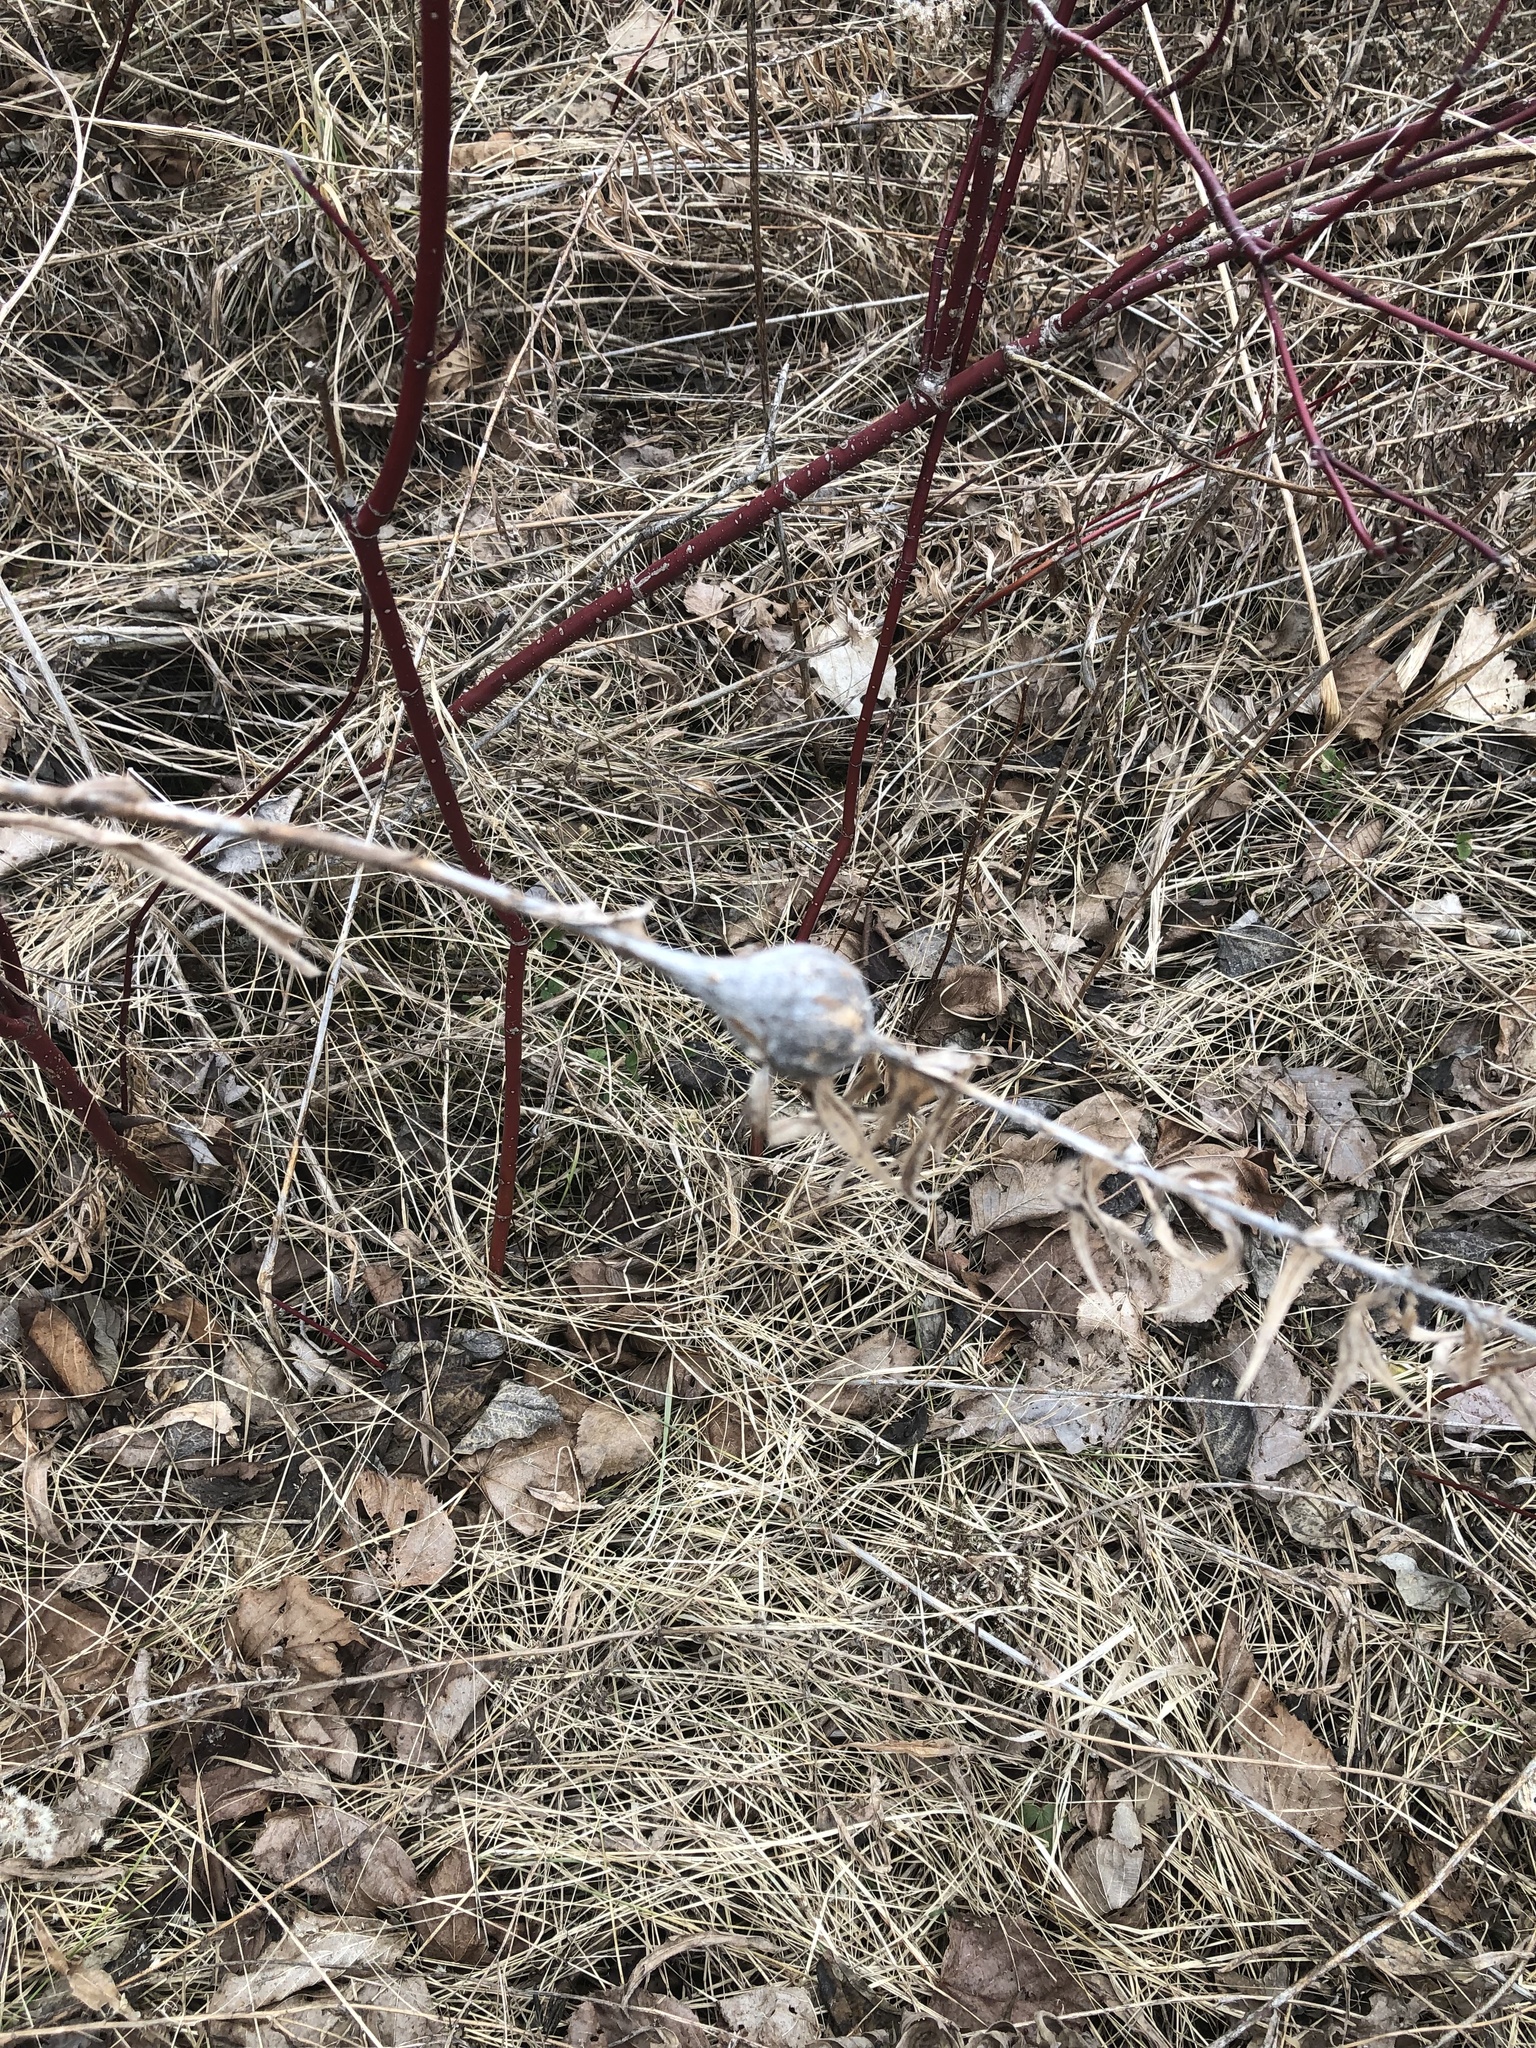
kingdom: Animalia
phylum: Arthropoda
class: Insecta
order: Diptera
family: Tephritidae
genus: Eurosta
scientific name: Eurosta solidaginis
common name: Goldenrod gall fly
